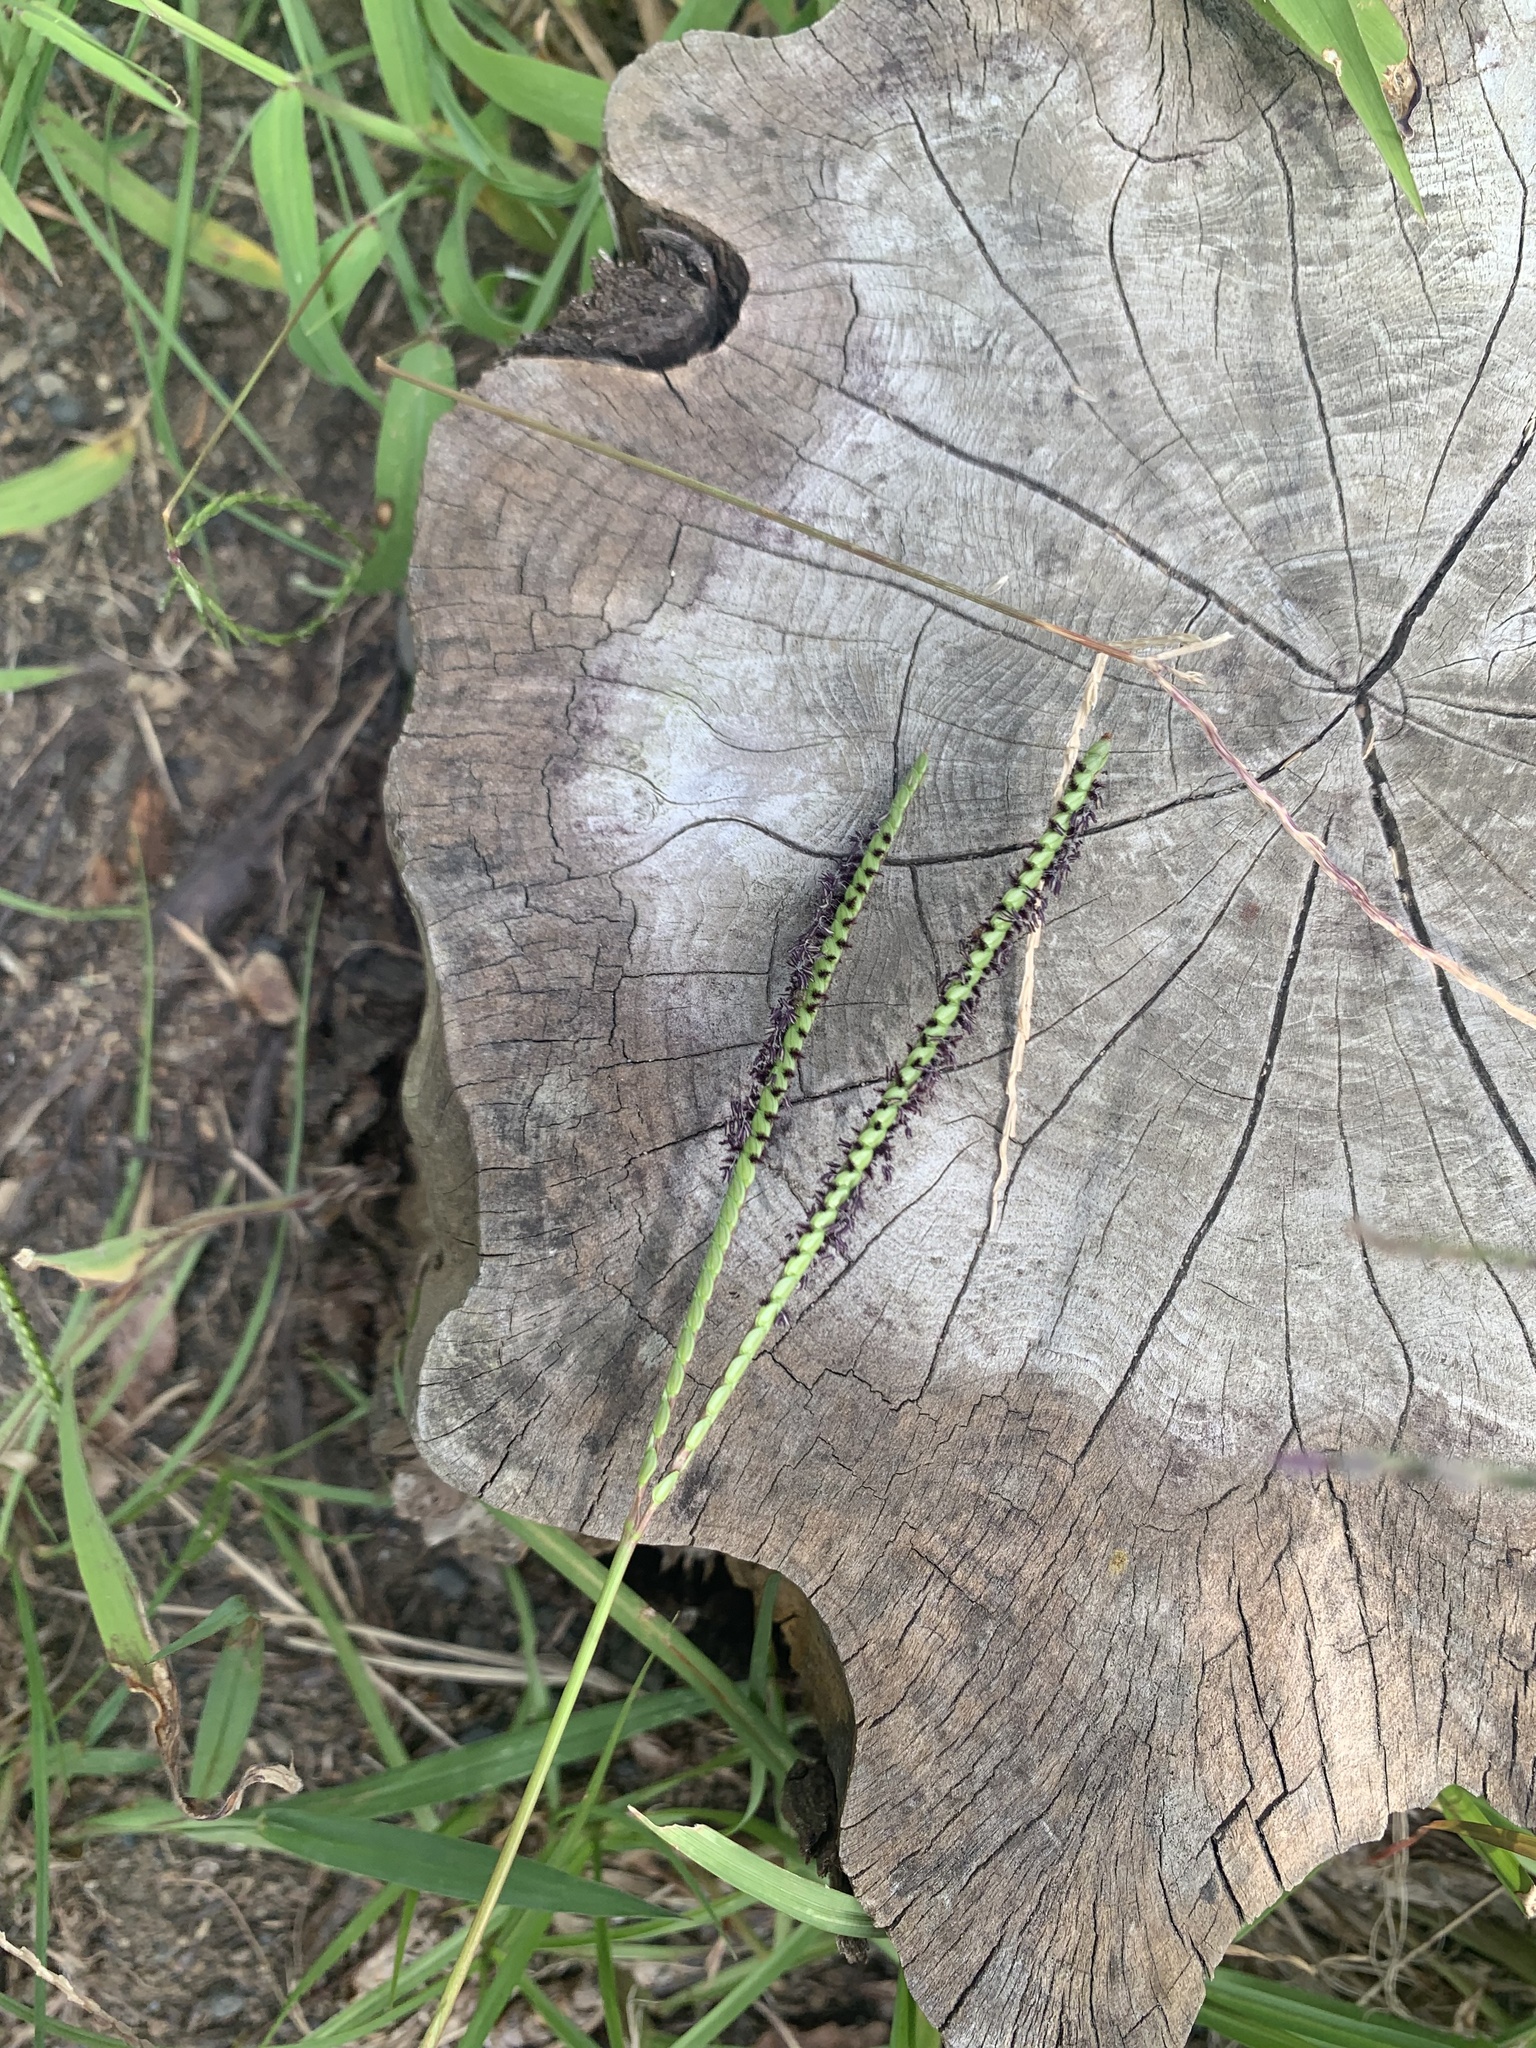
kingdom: Plantae
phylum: Tracheophyta
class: Liliopsida
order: Poales
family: Poaceae
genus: Paspalum
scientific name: Paspalum notatum
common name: Bahiagrass
